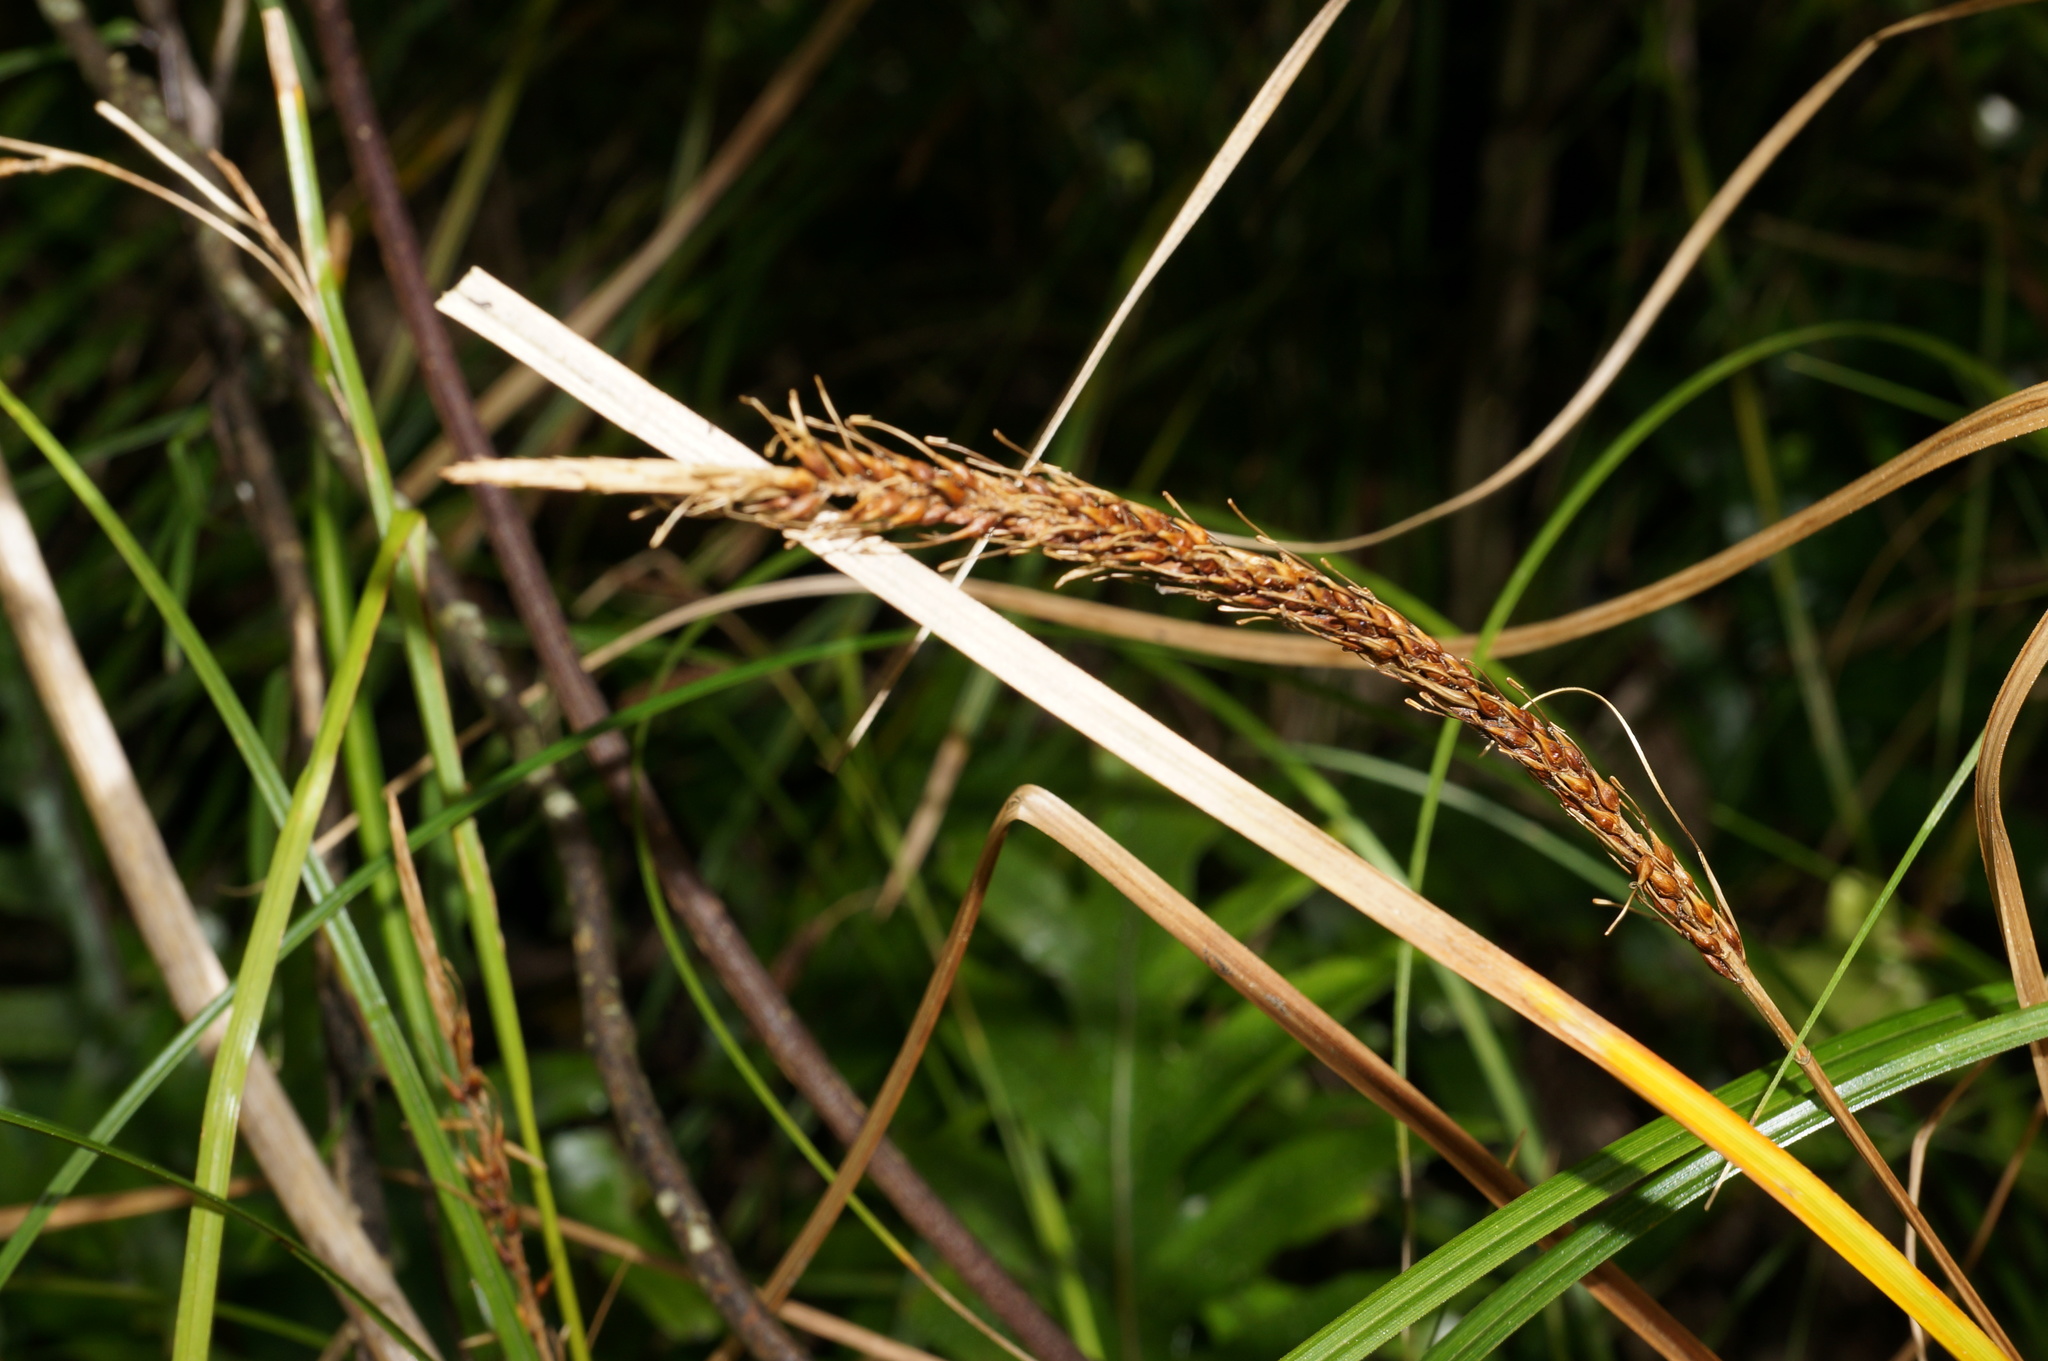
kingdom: Plantae
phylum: Tracheophyta
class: Liliopsida
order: Poales
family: Cyperaceae
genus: Carex
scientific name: Carex uncinata
